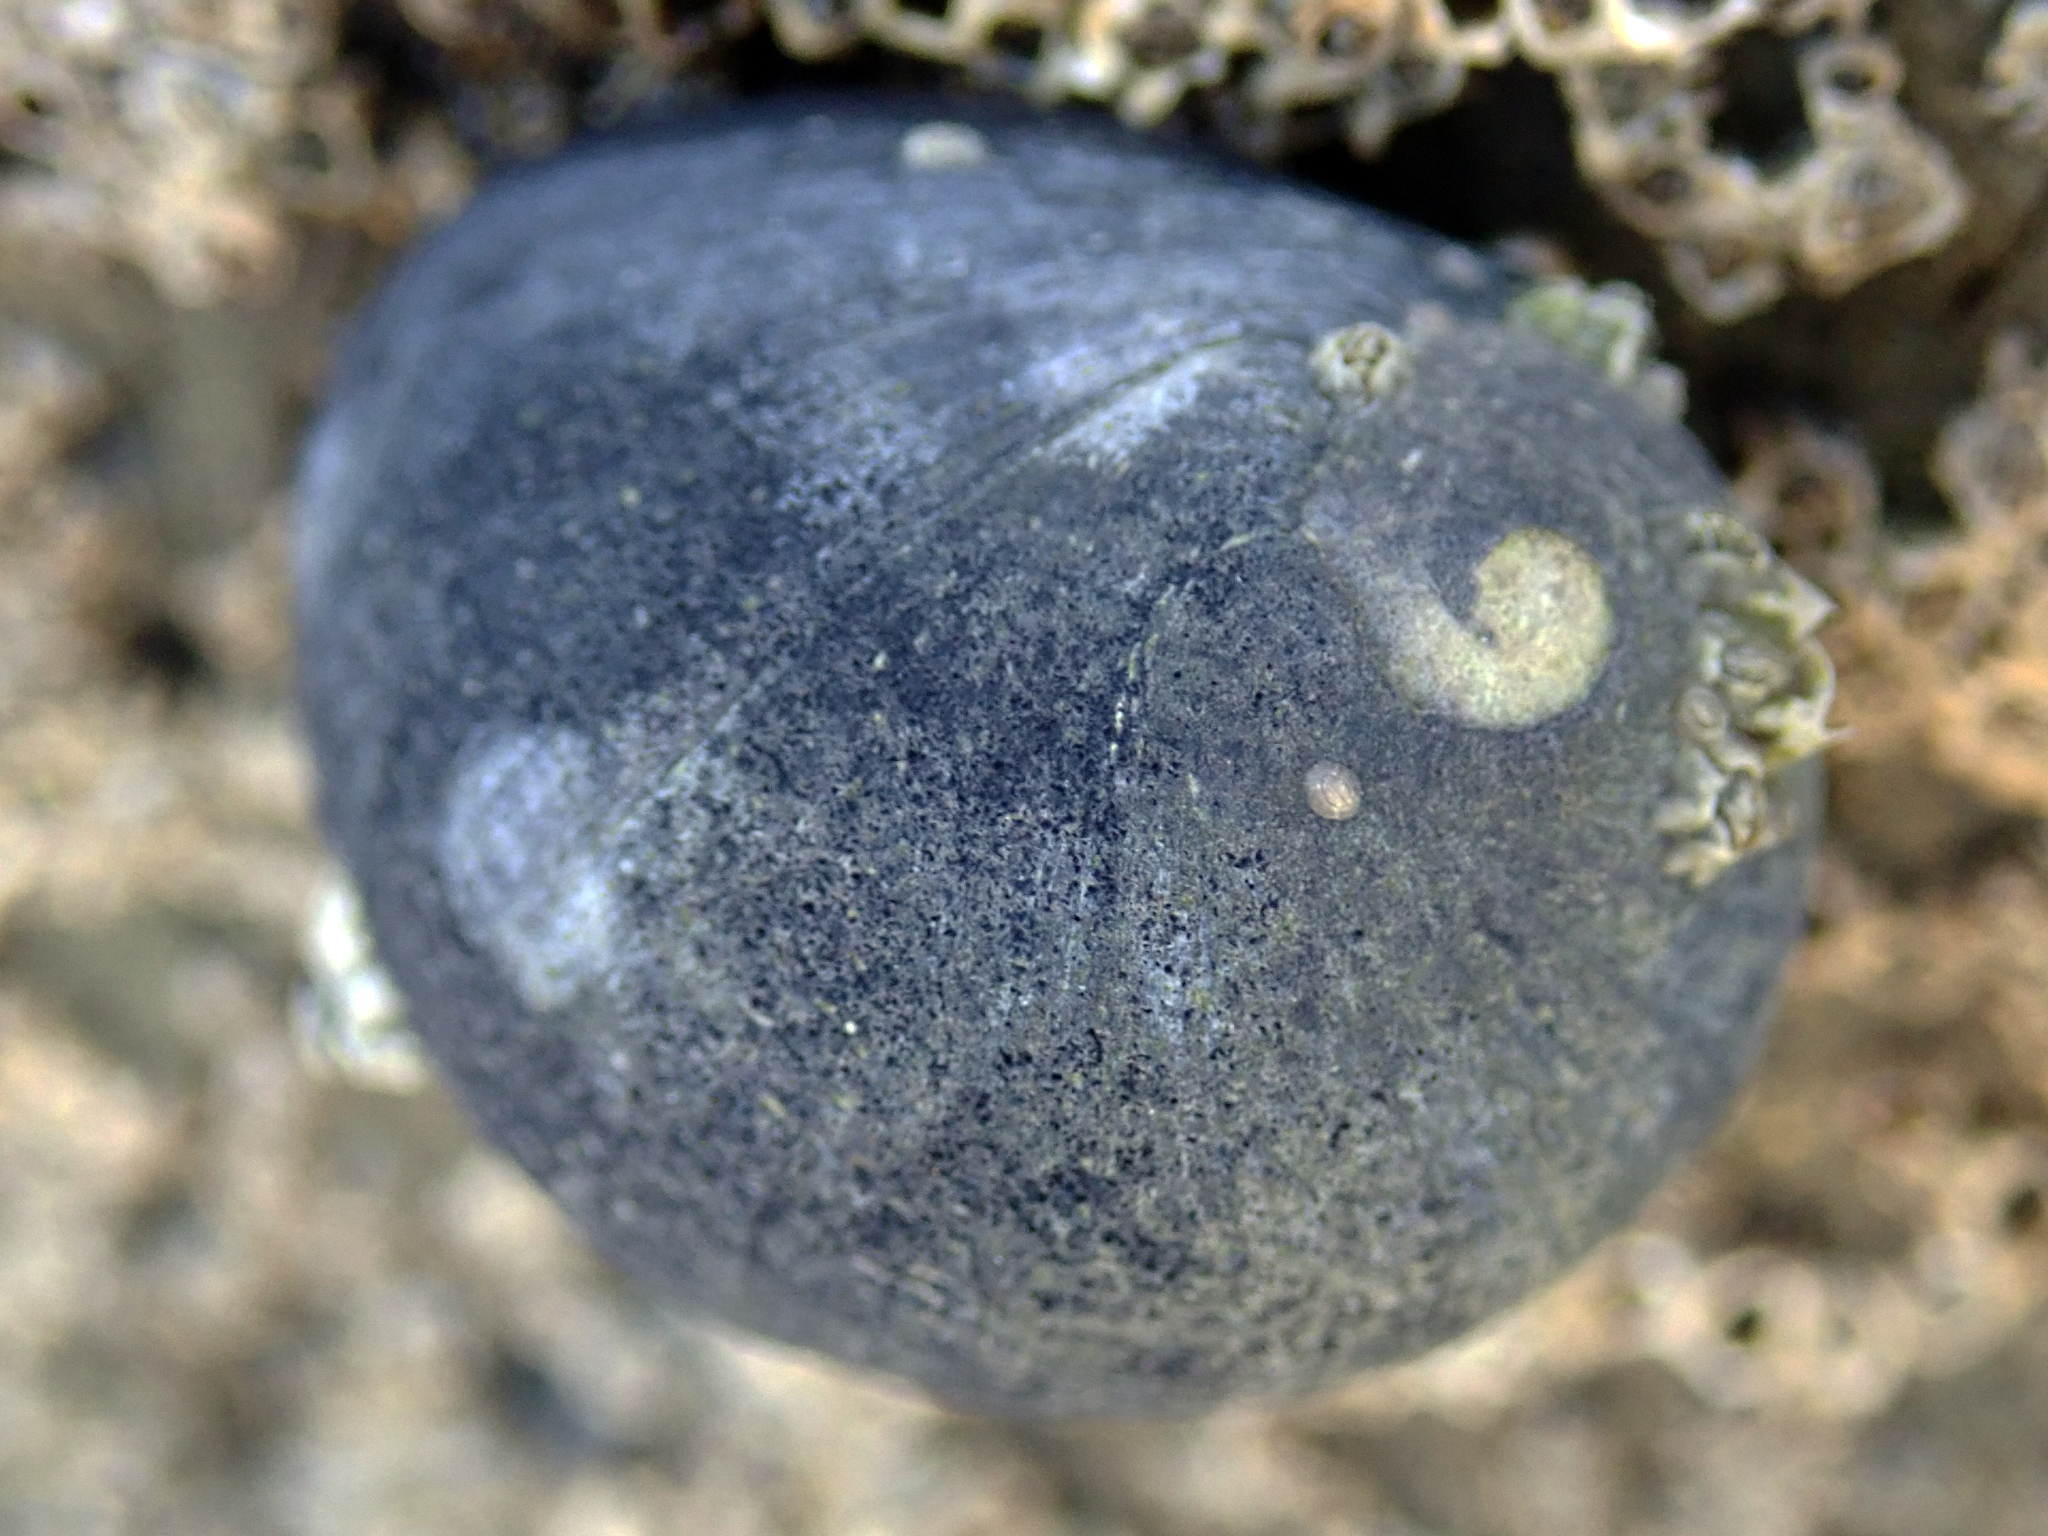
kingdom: Animalia
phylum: Mollusca
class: Gastropoda
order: Cycloneritida
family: Neritidae
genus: Nerita
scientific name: Nerita melanotragus
